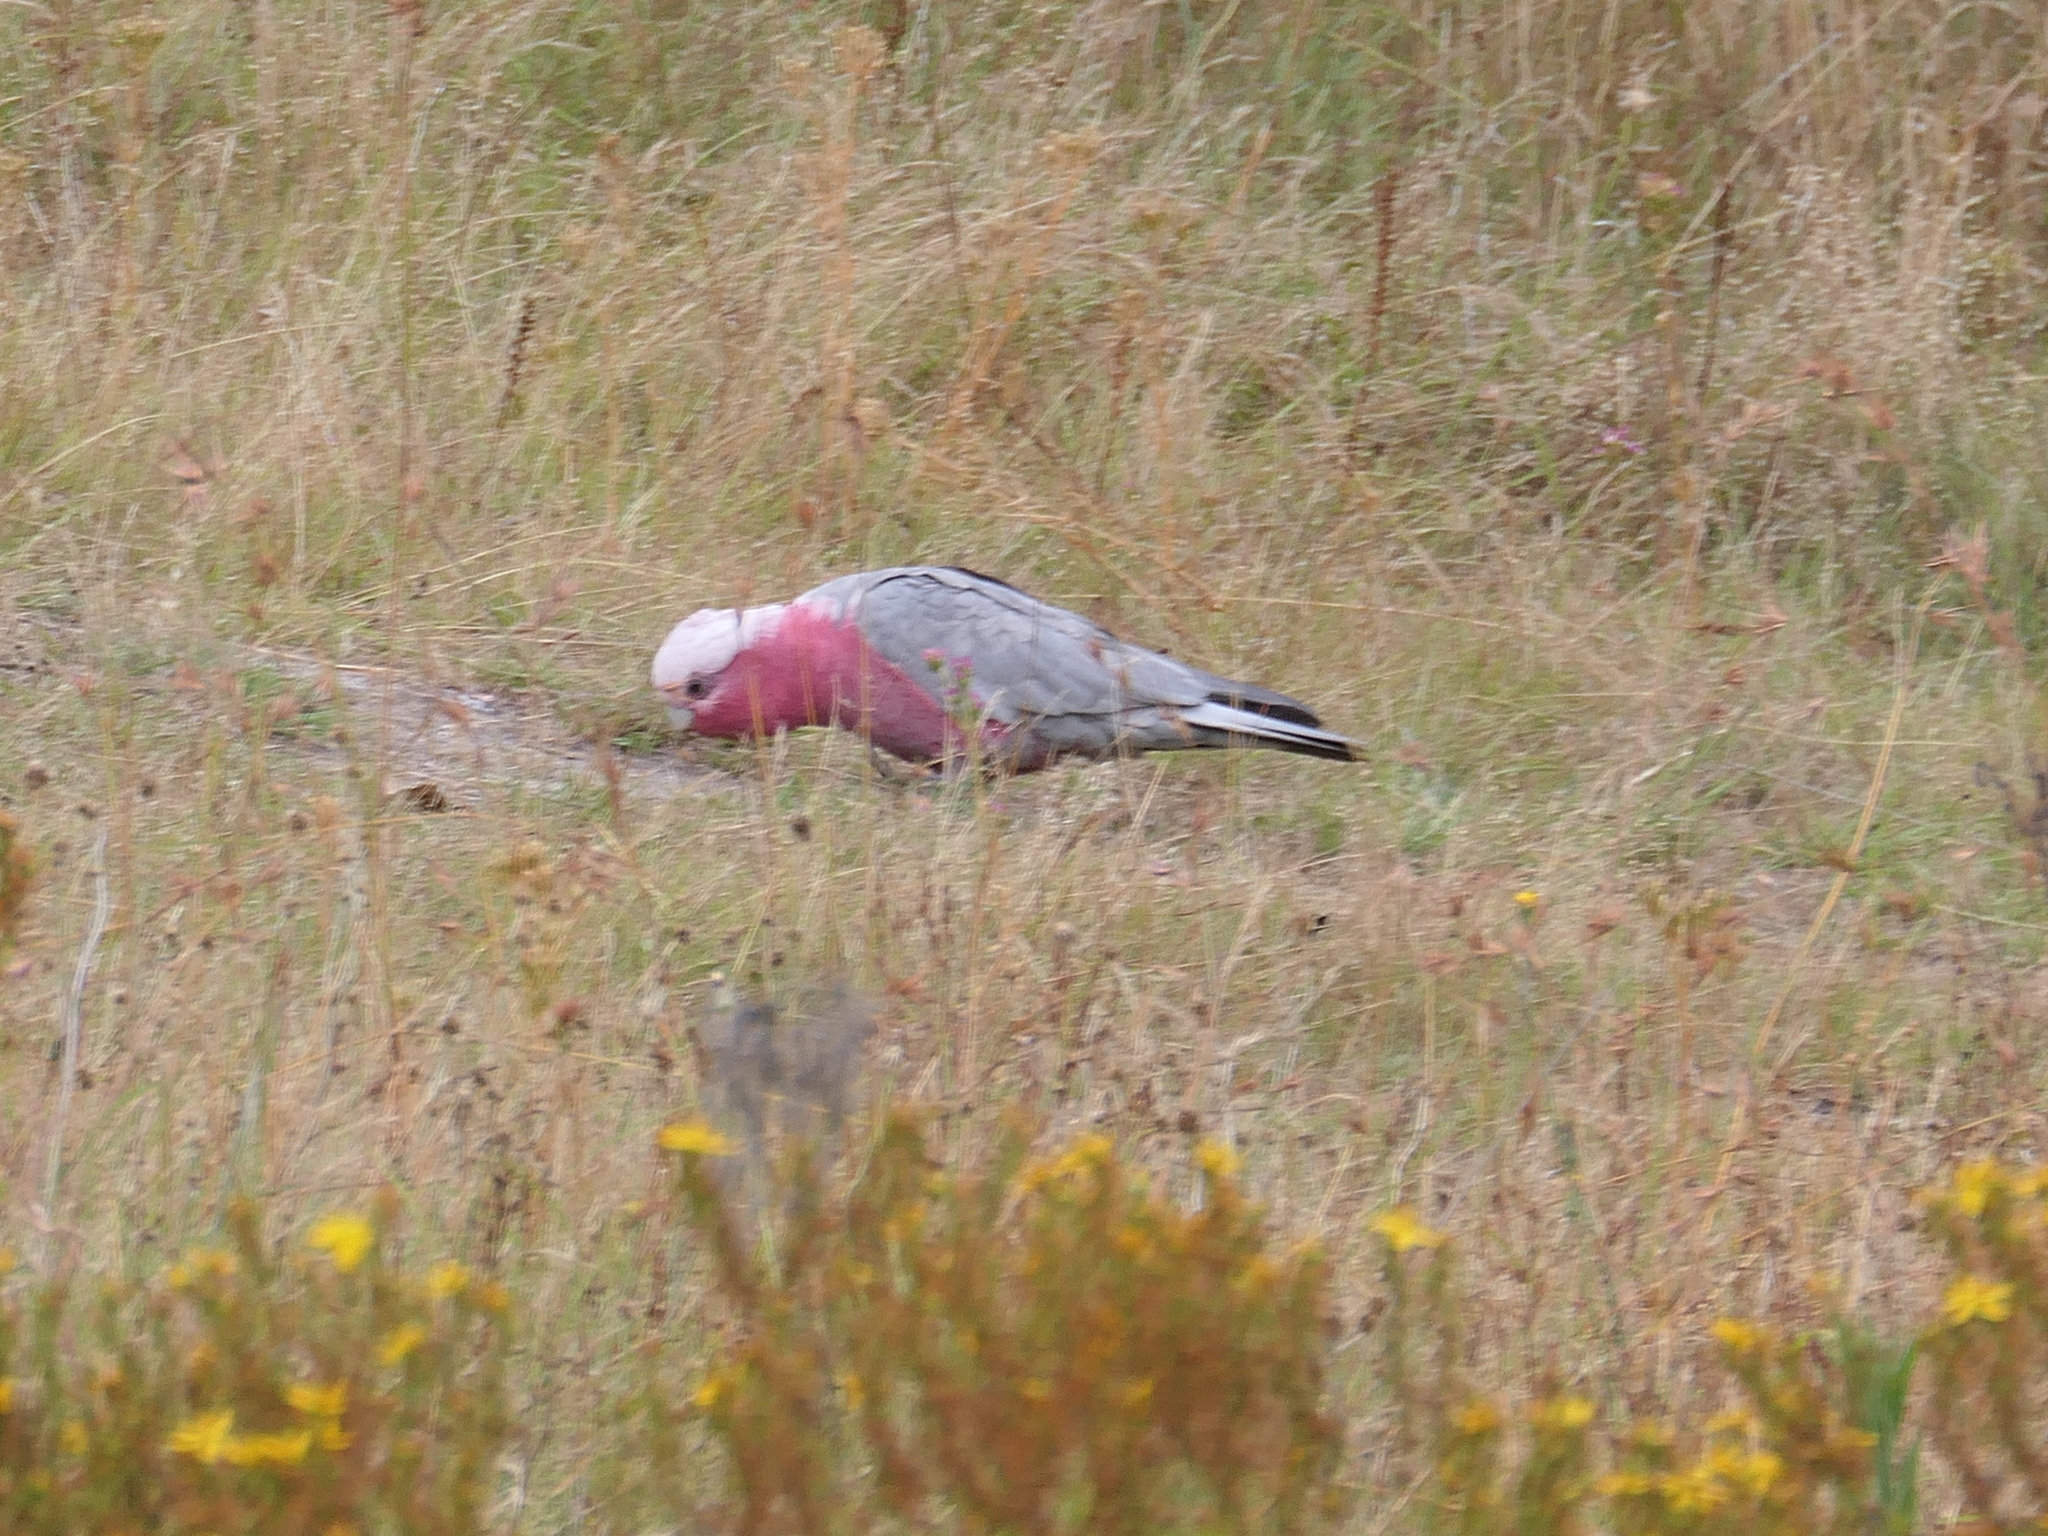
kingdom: Animalia
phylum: Chordata
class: Aves
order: Psittaciformes
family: Psittacidae
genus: Eolophus
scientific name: Eolophus roseicapilla
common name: Galah
